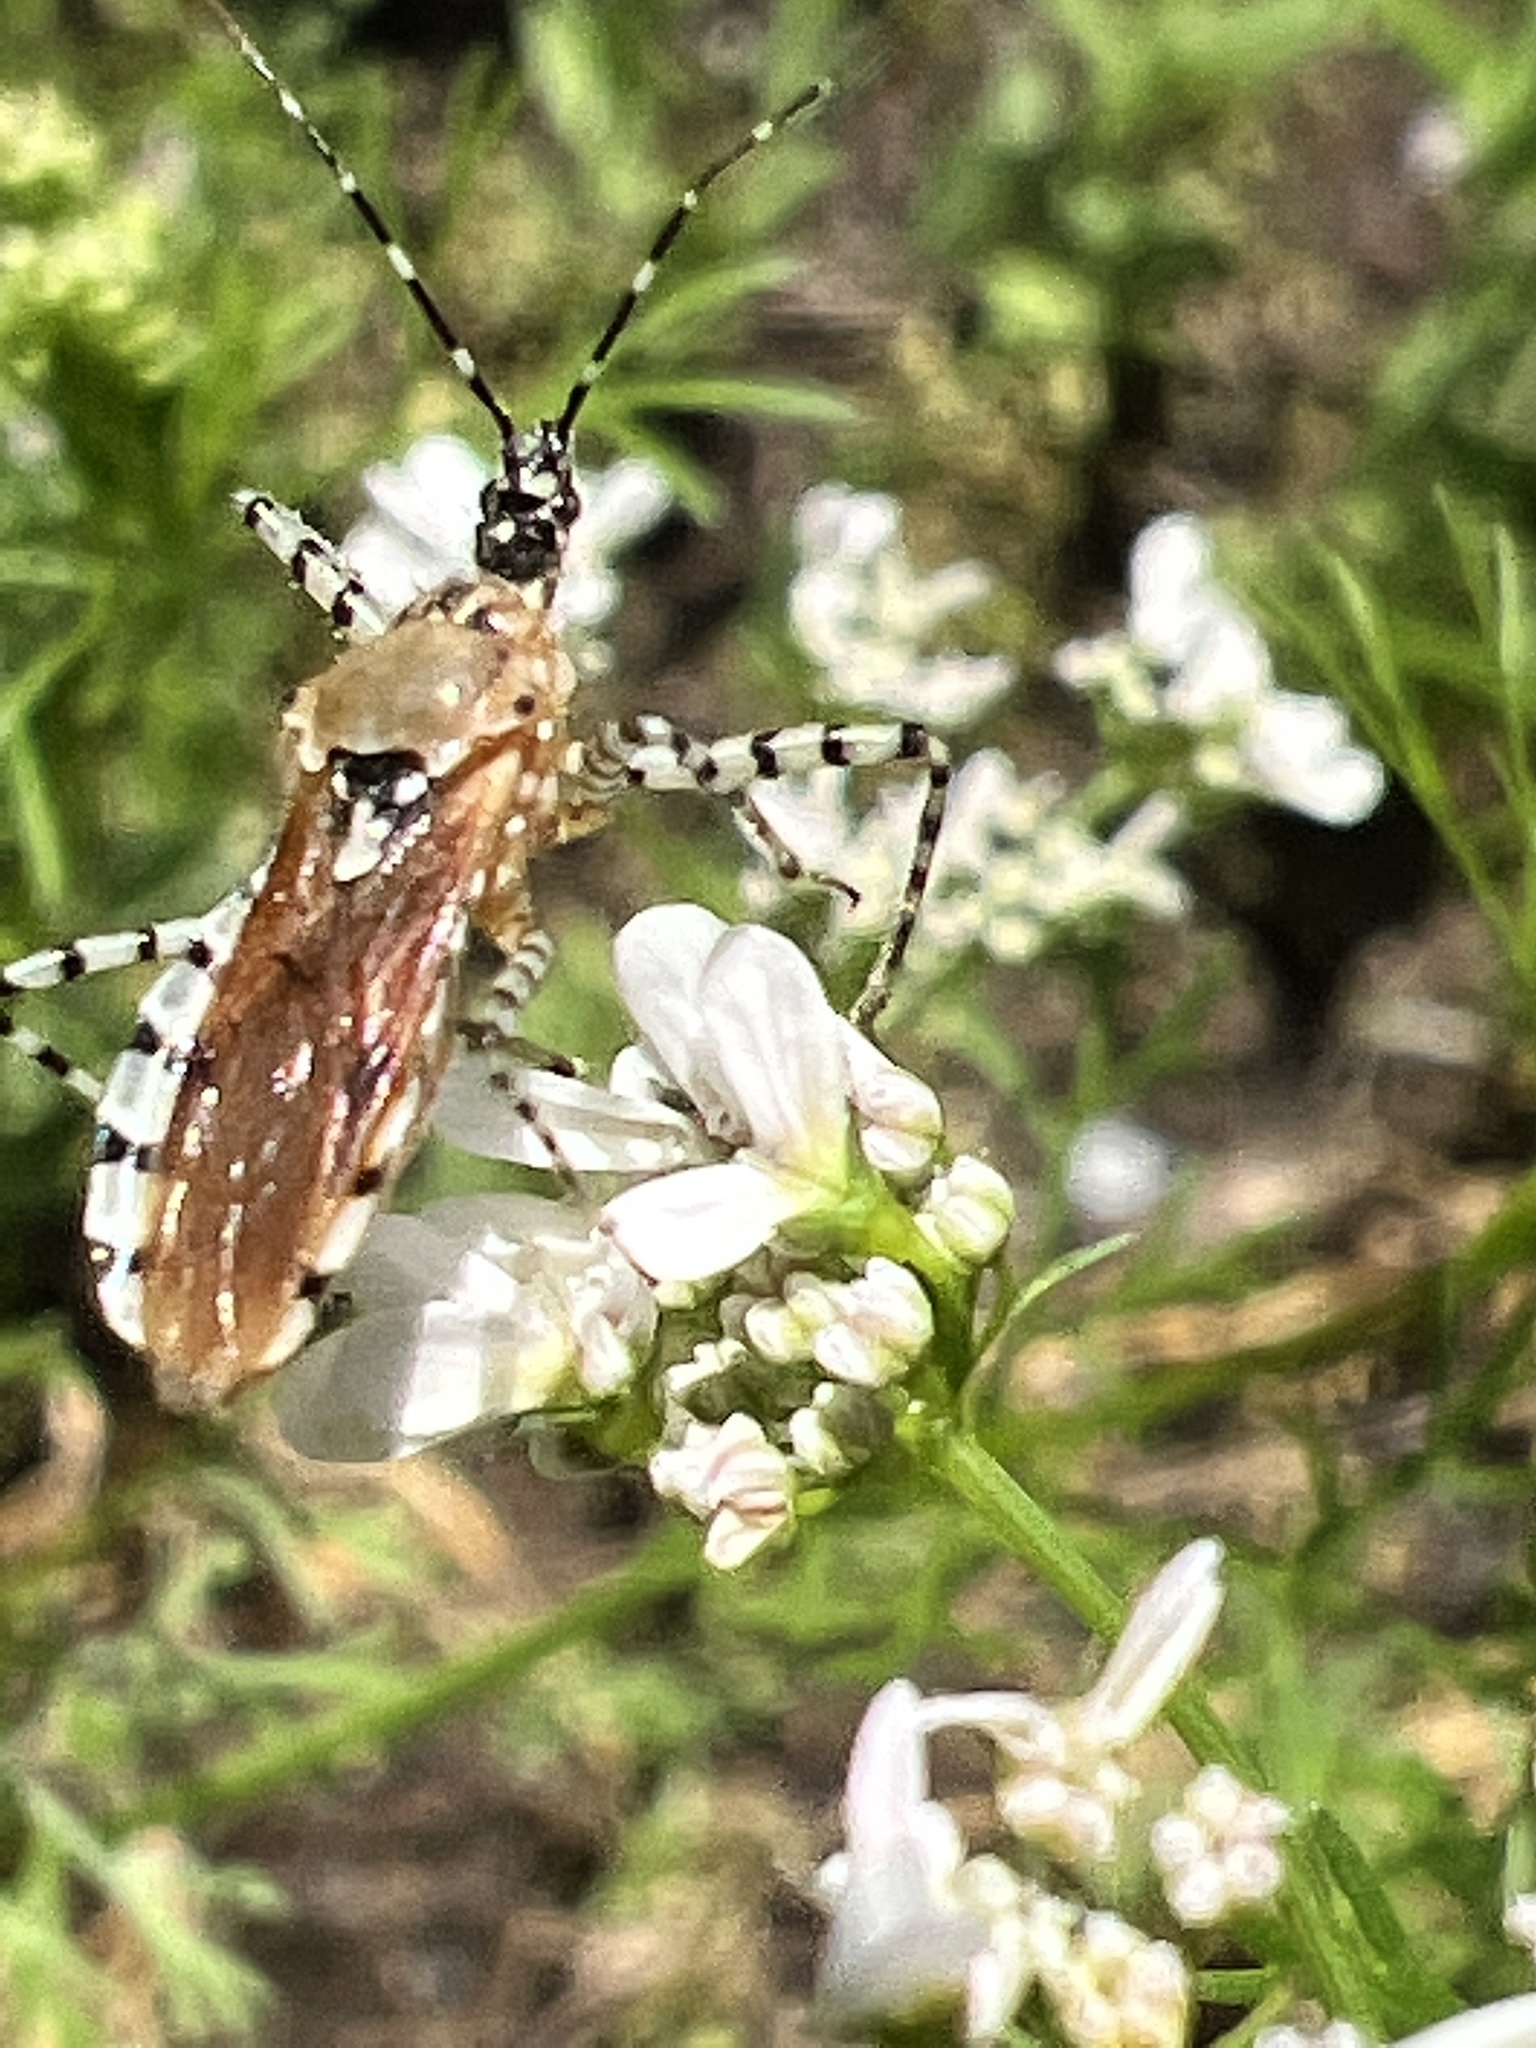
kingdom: Animalia
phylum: Arthropoda
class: Insecta
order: Hemiptera
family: Reduviidae
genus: Pselliopus
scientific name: Pselliopus cinctus
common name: Ringed assassin bug
